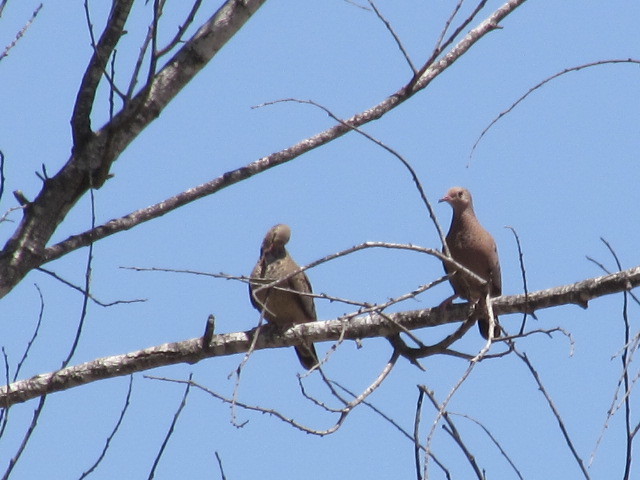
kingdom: Animalia
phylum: Chordata
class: Aves
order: Columbiformes
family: Columbidae
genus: Columbina
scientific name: Columbina passerina
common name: Common ground-dove
